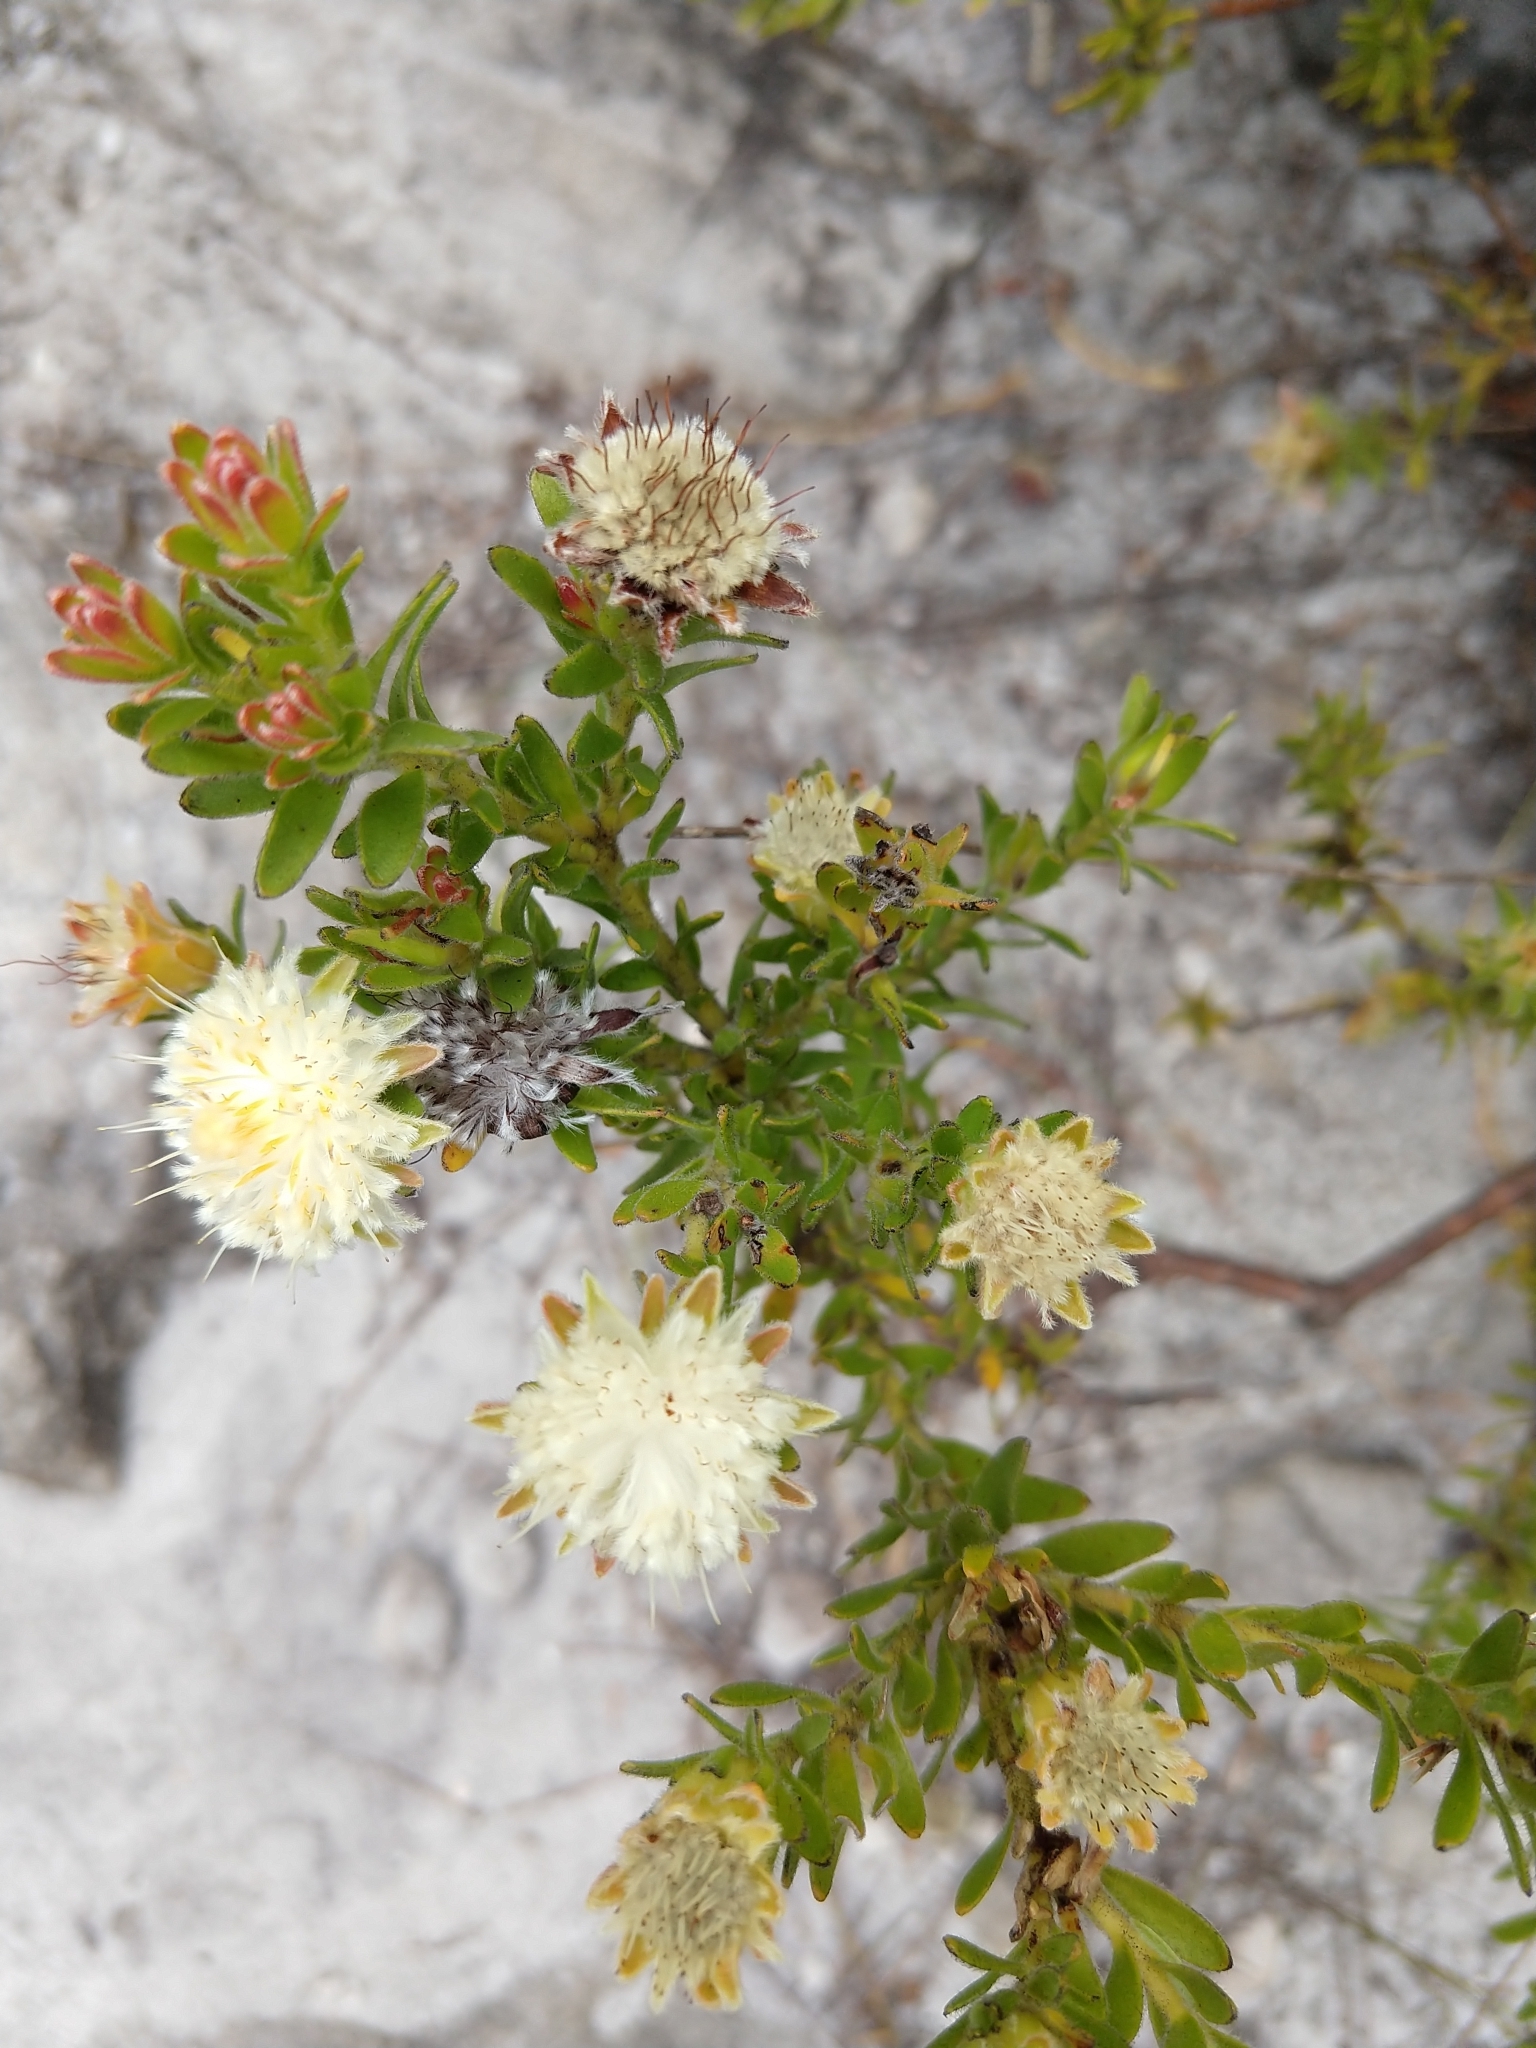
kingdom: Plantae
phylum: Tracheophyta
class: Magnoliopsida
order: Proteales
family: Proteaceae
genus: Diastella
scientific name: Diastella fraterna
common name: Palmiet silkypuff
